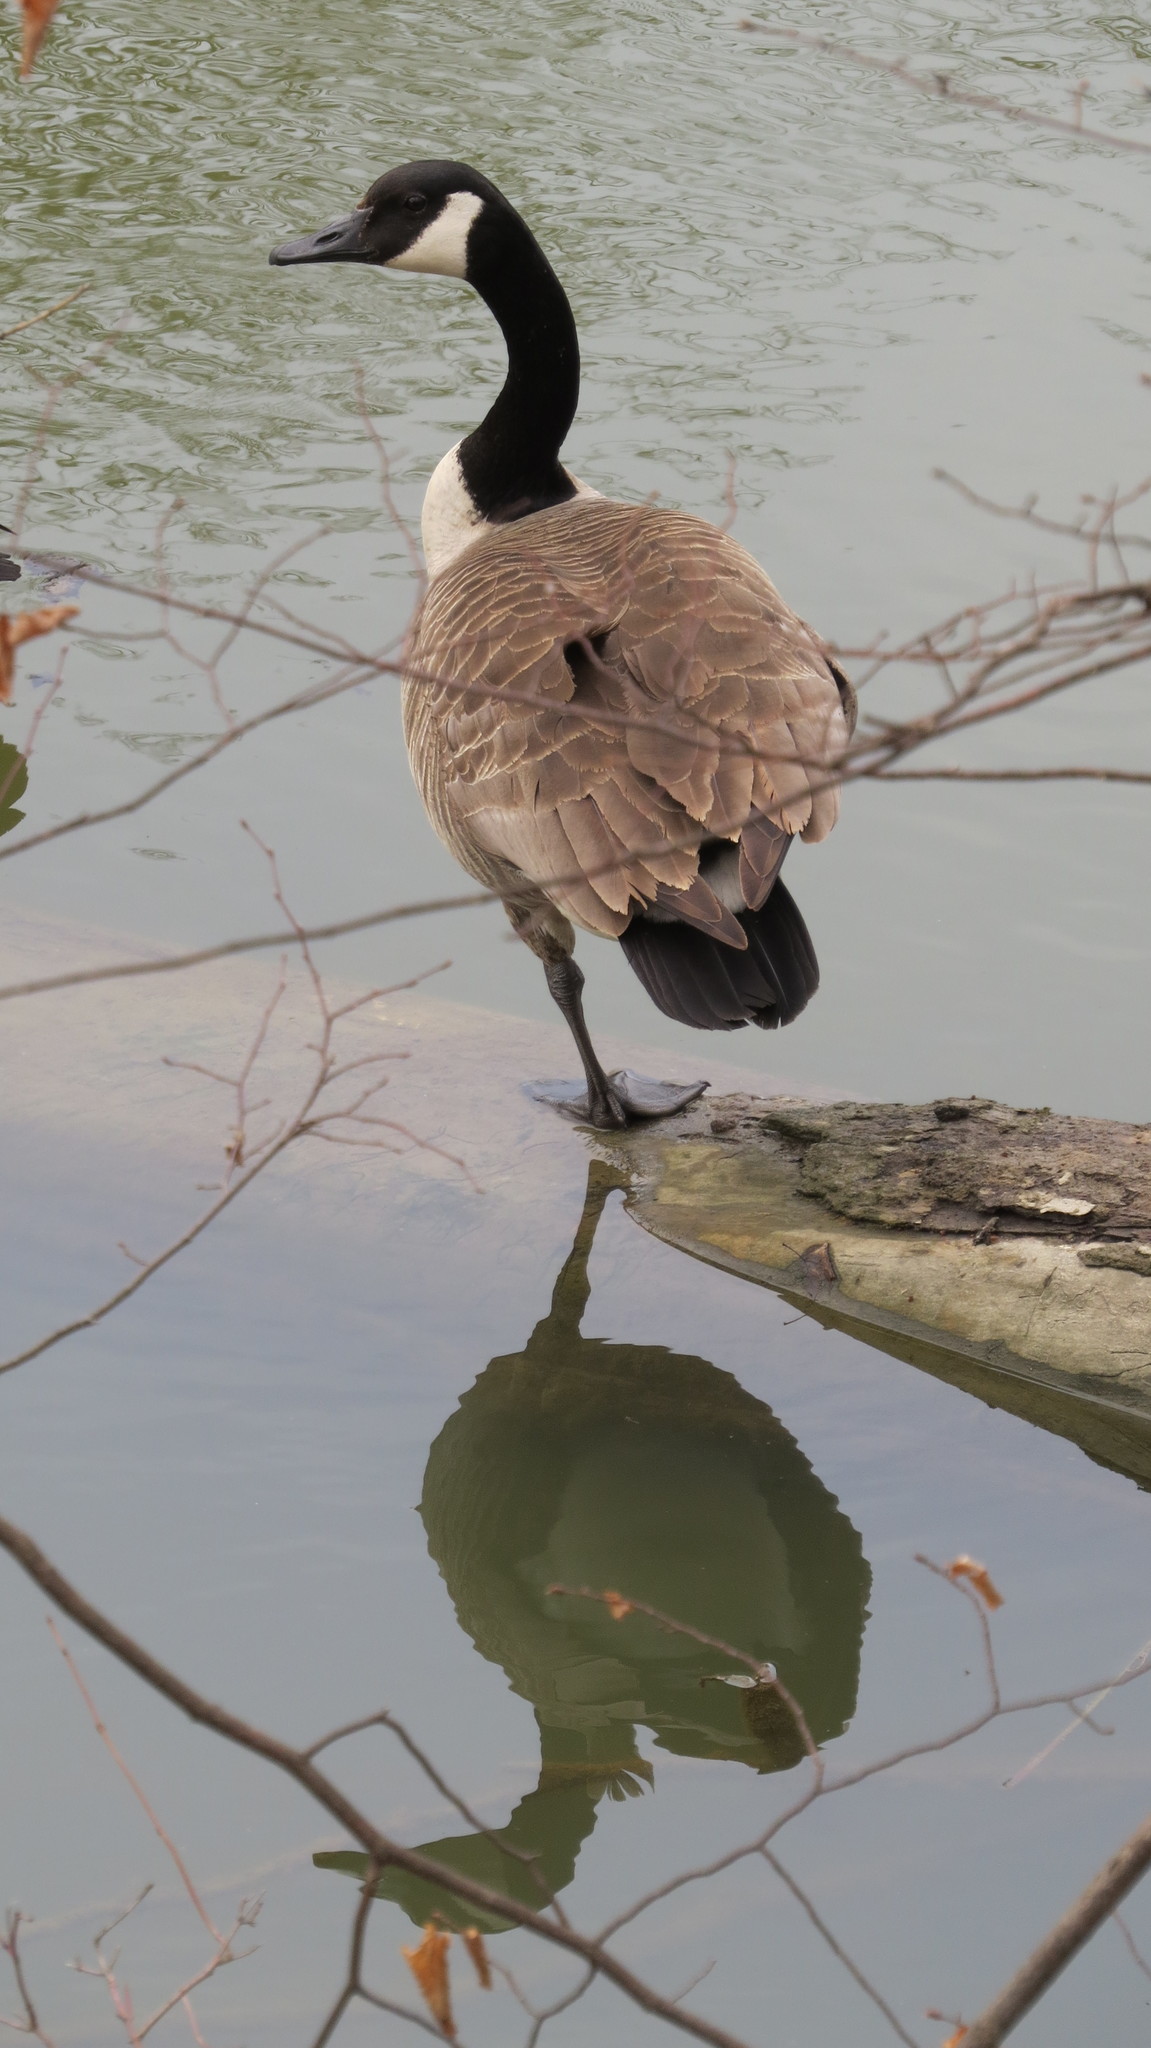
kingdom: Animalia
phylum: Chordata
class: Aves
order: Anseriformes
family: Anatidae
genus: Branta
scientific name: Branta canadensis
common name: Canada goose
